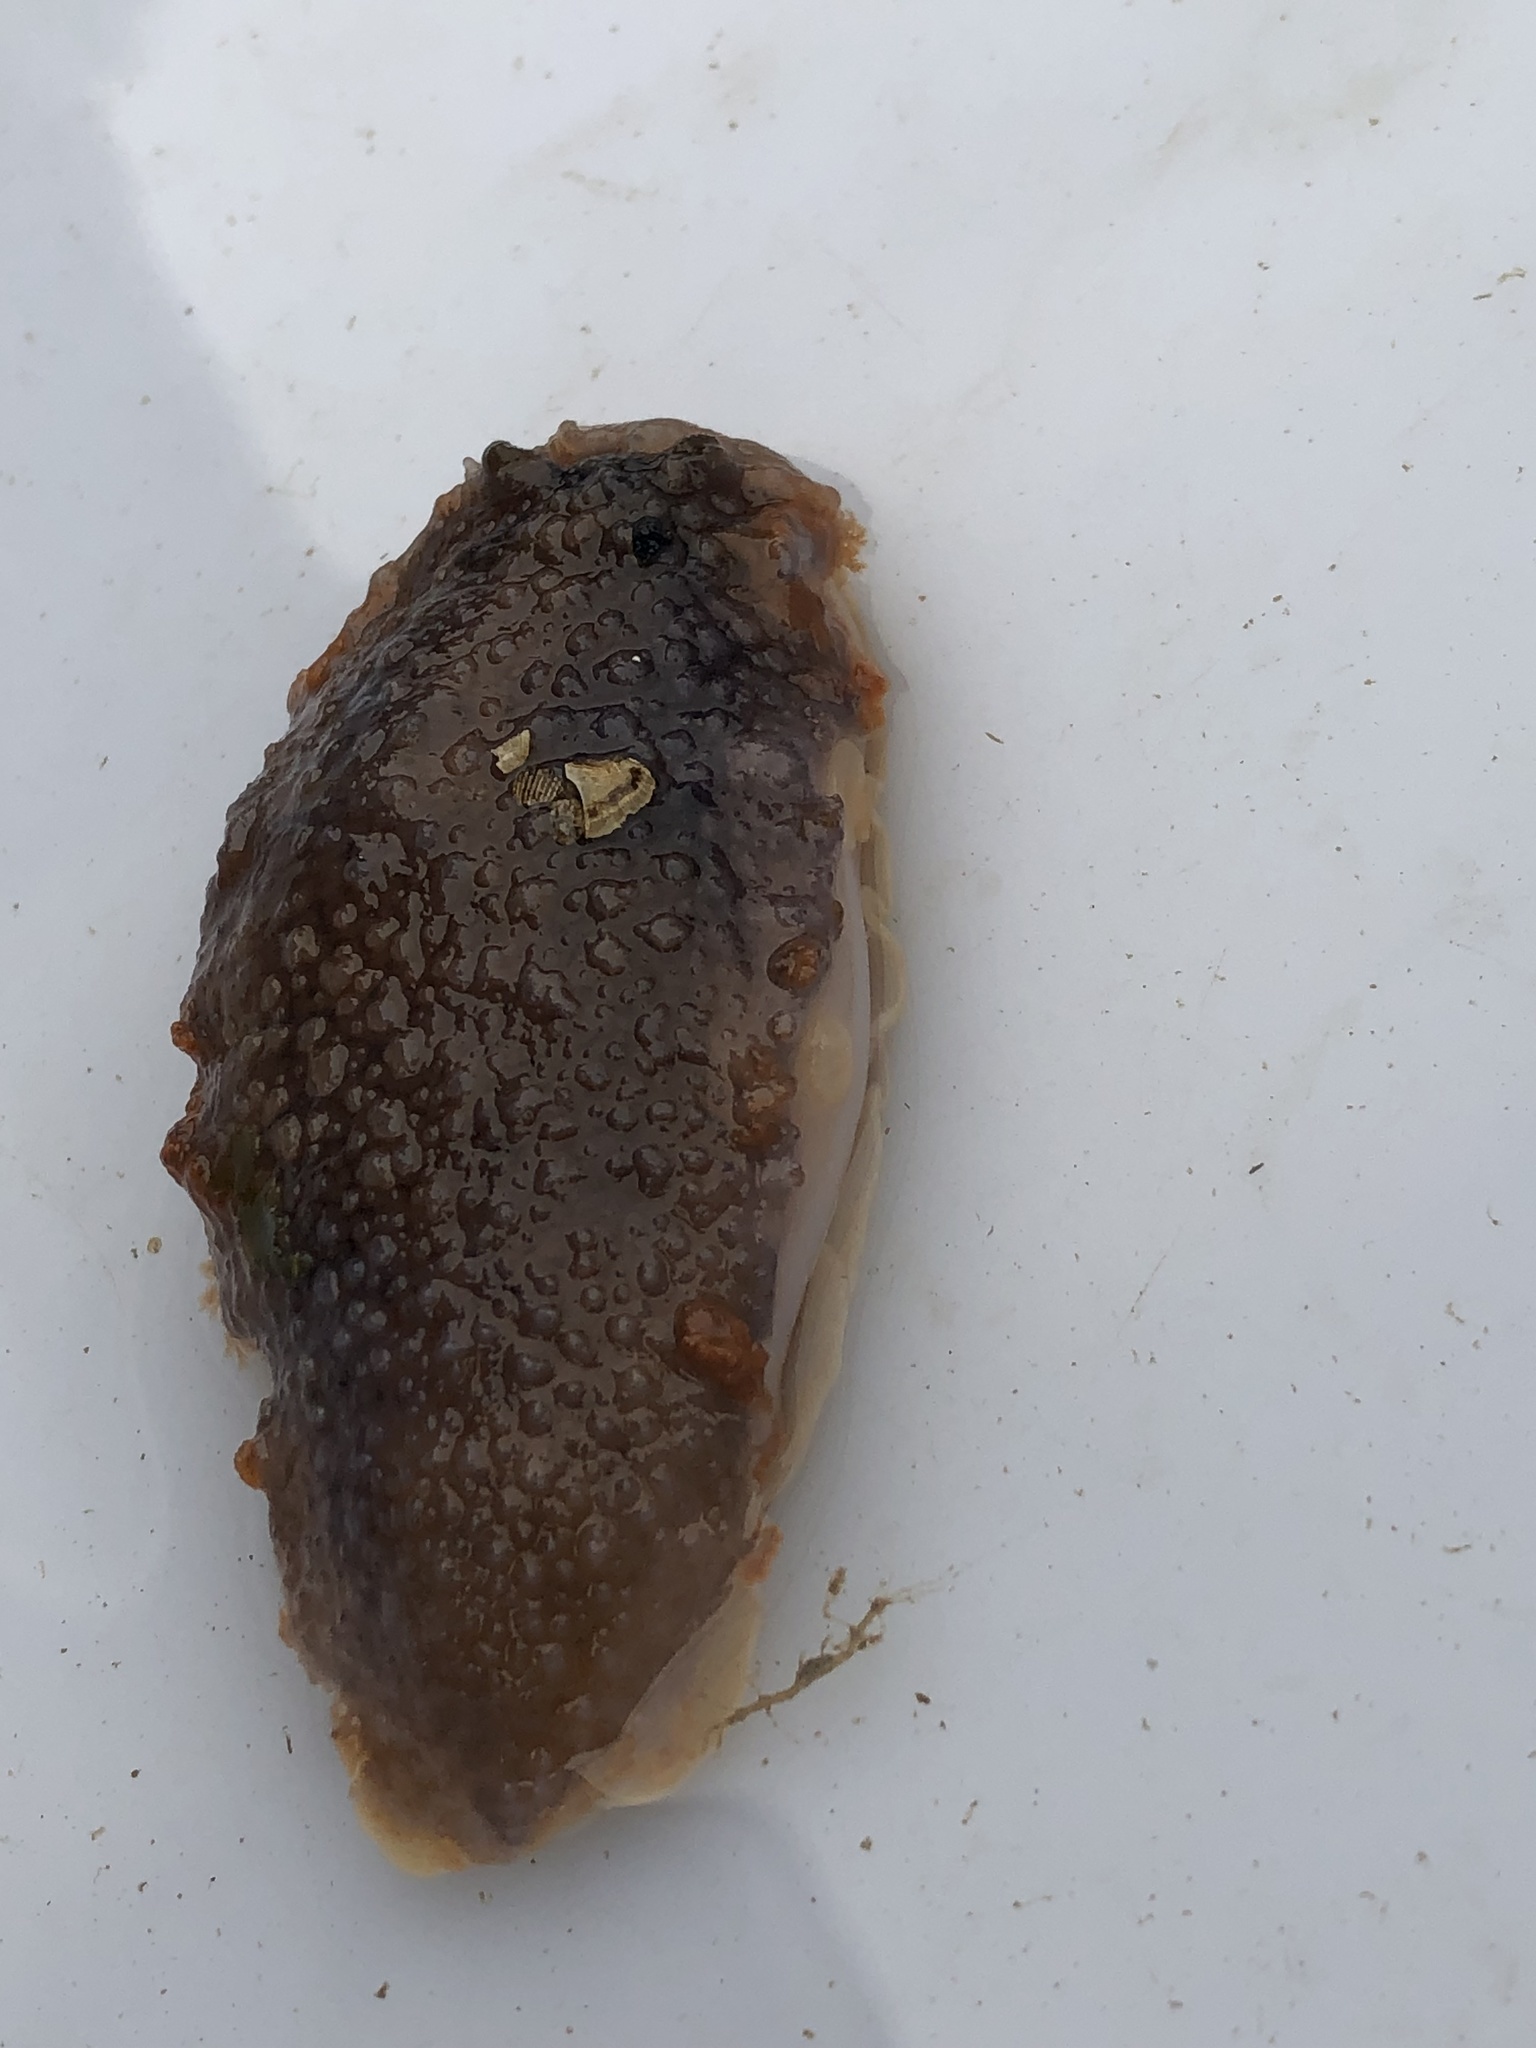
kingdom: Animalia
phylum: Mollusca
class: Gastropoda
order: Nudibranchia
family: Tritoniidae
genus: Tritonia
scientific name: Tritonia hombergii
